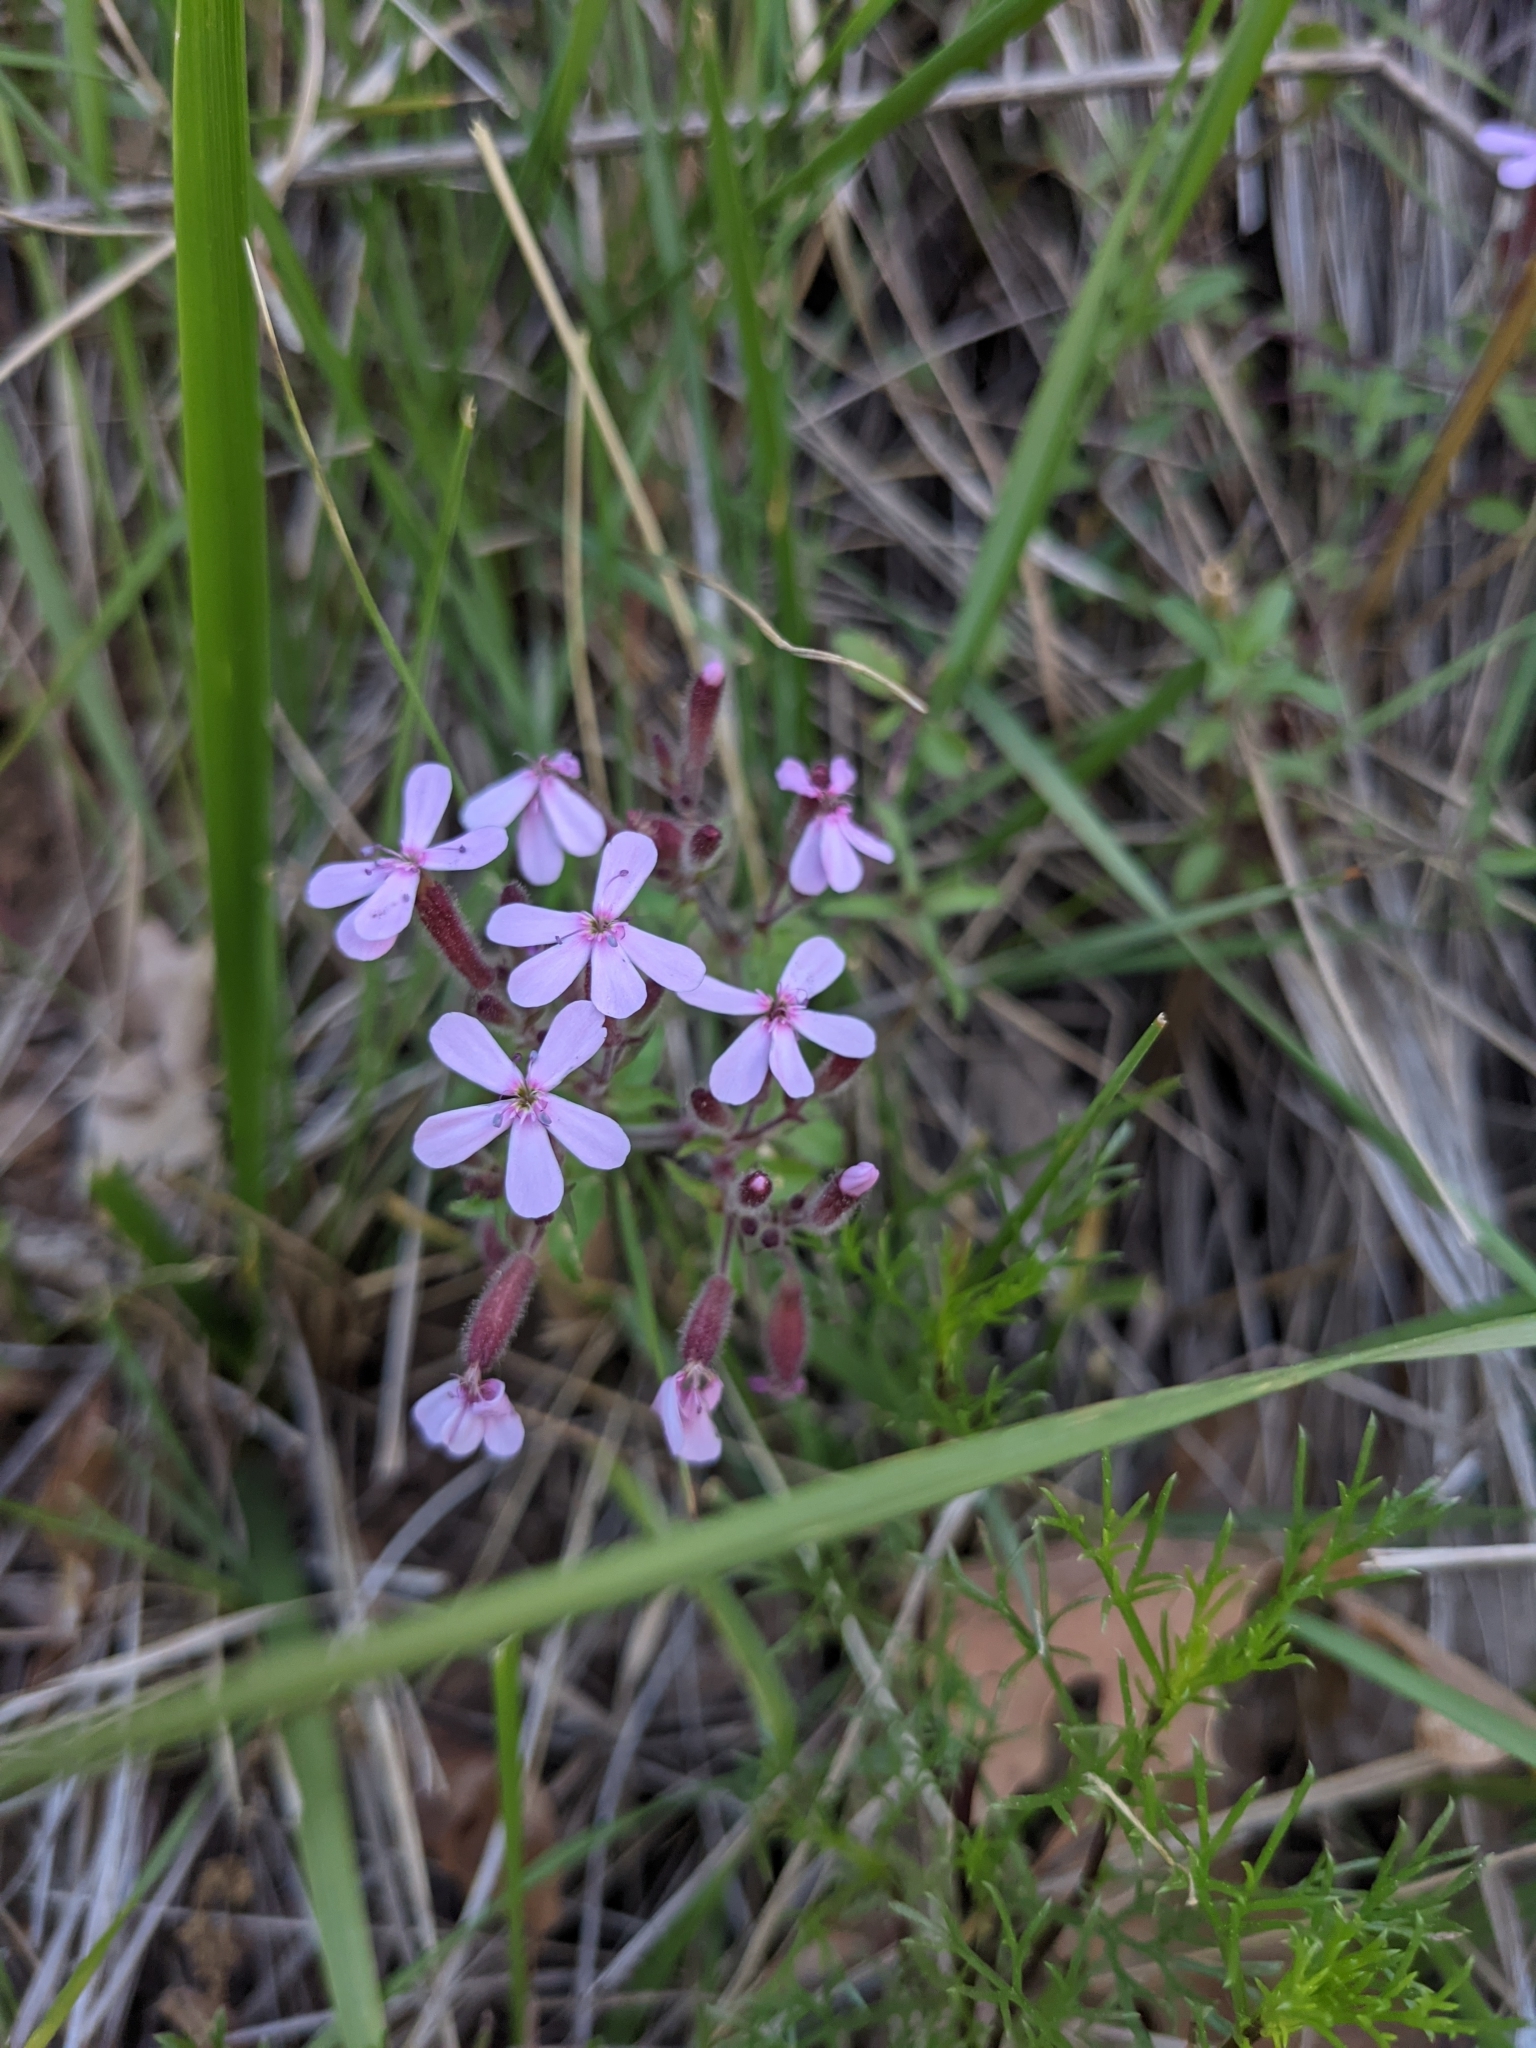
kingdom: Plantae
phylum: Tracheophyta
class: Magnoliopsida
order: Caryophyllales
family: Caryophyllaceae
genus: Saponaria
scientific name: Saponaria ocymoides
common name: Rock soapwort
